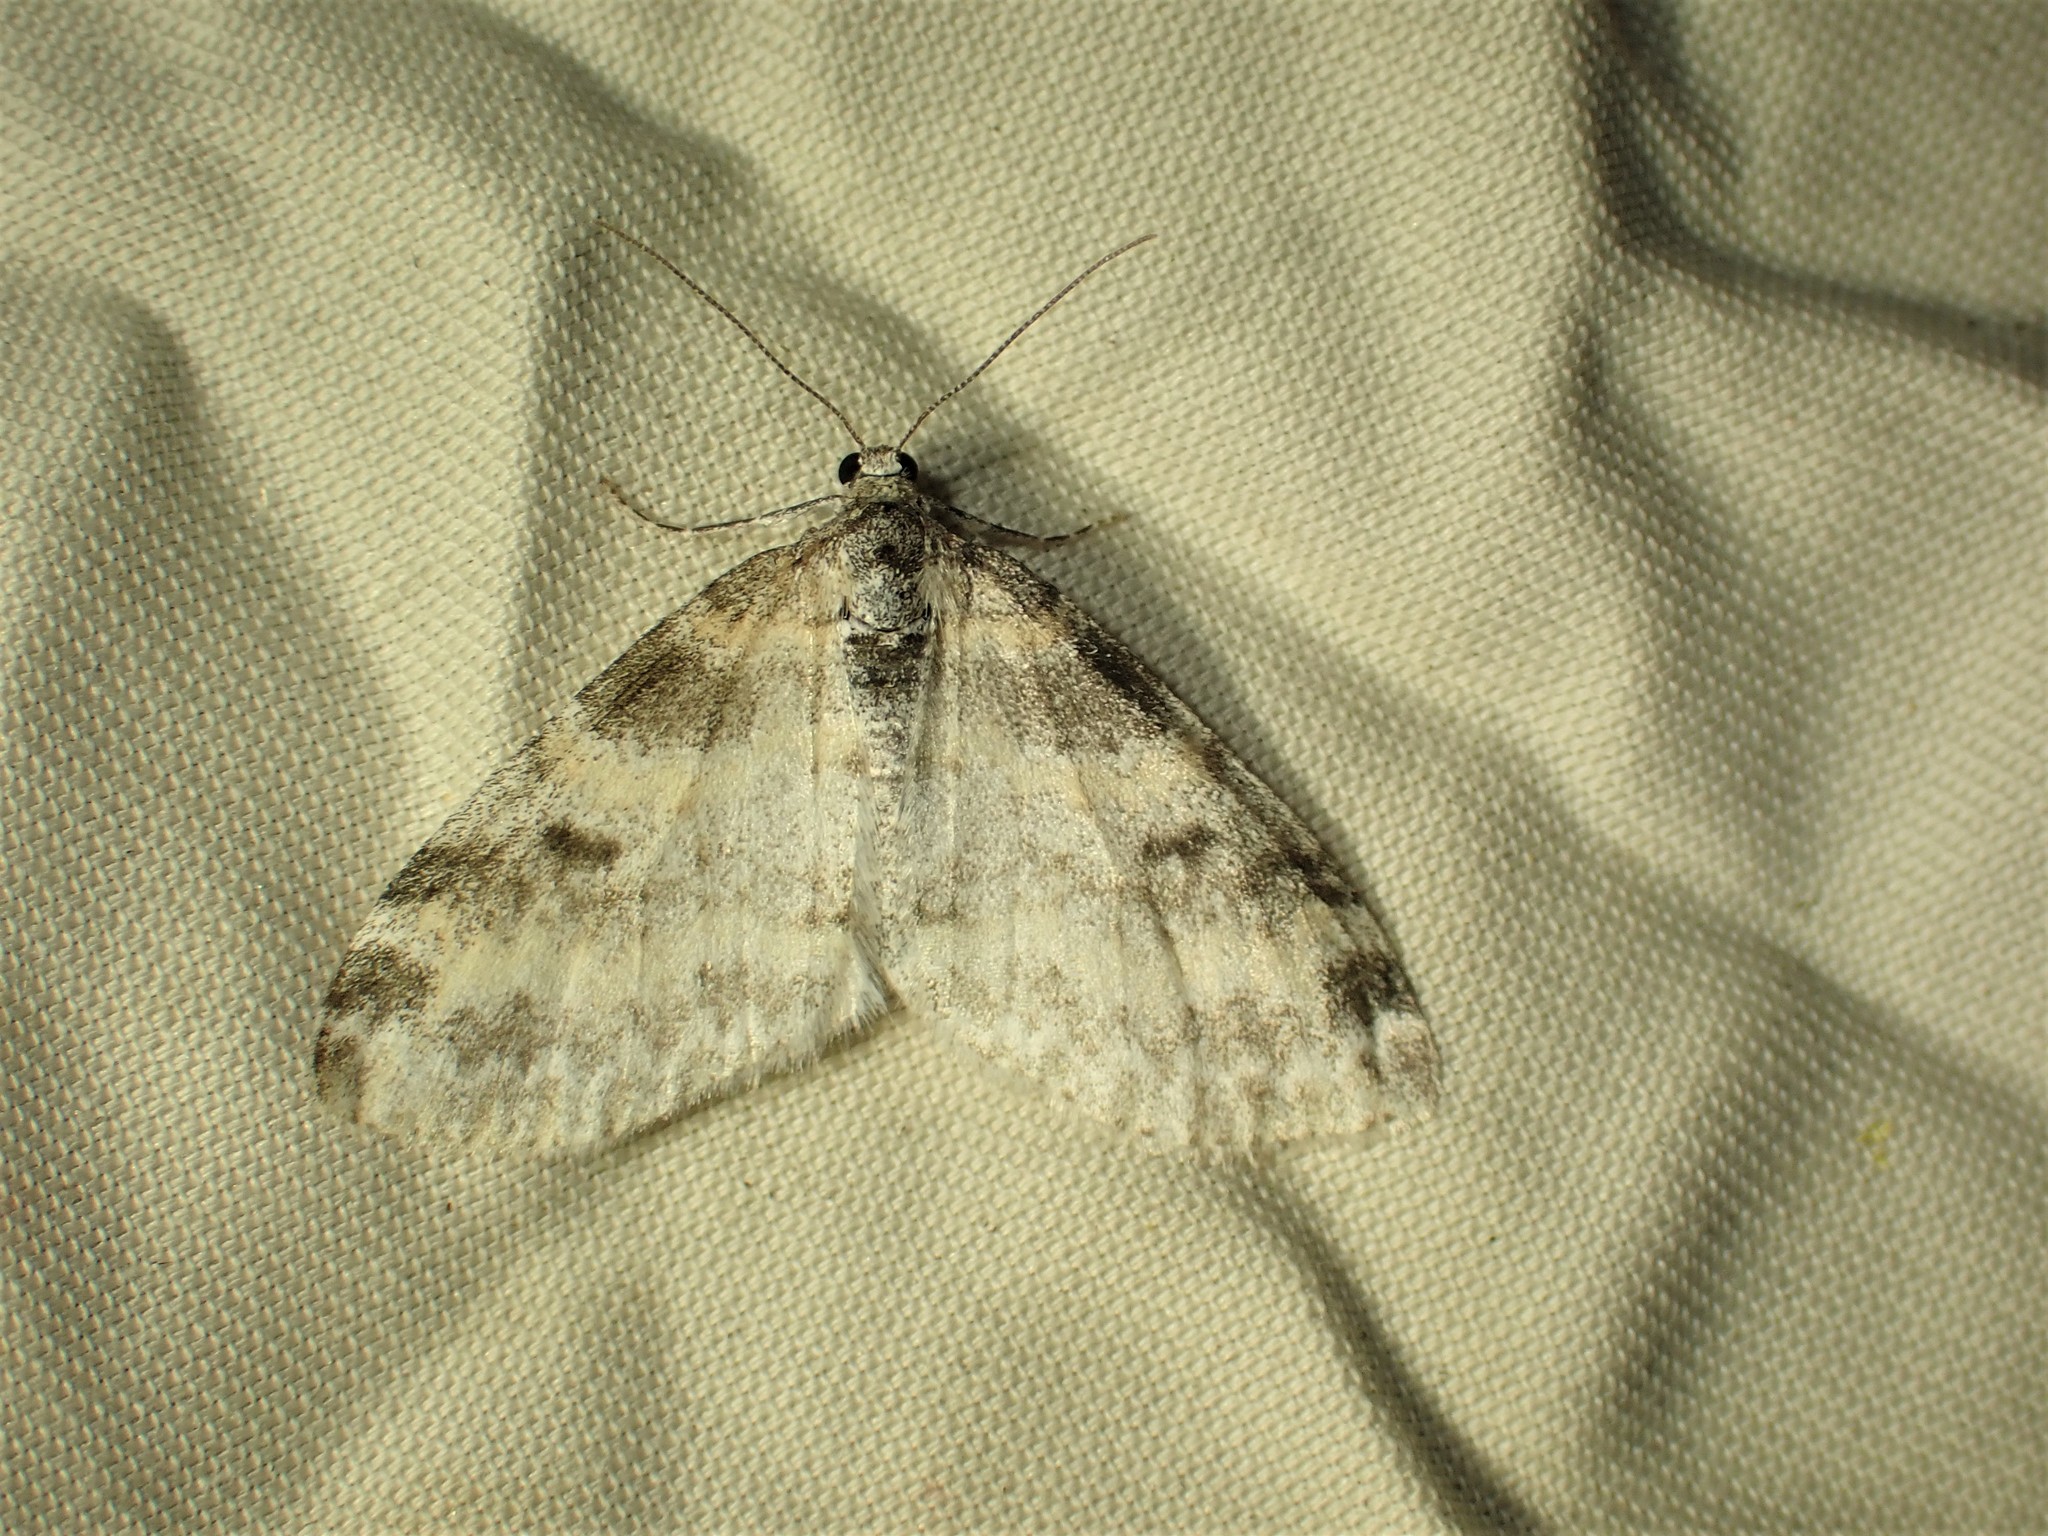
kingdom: Animalia
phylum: Arthropoda
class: Insecta
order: Lepidoptera
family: Geometridae
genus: Lobophora
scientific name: Lobophora nivigerata
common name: Powdered bigwing
